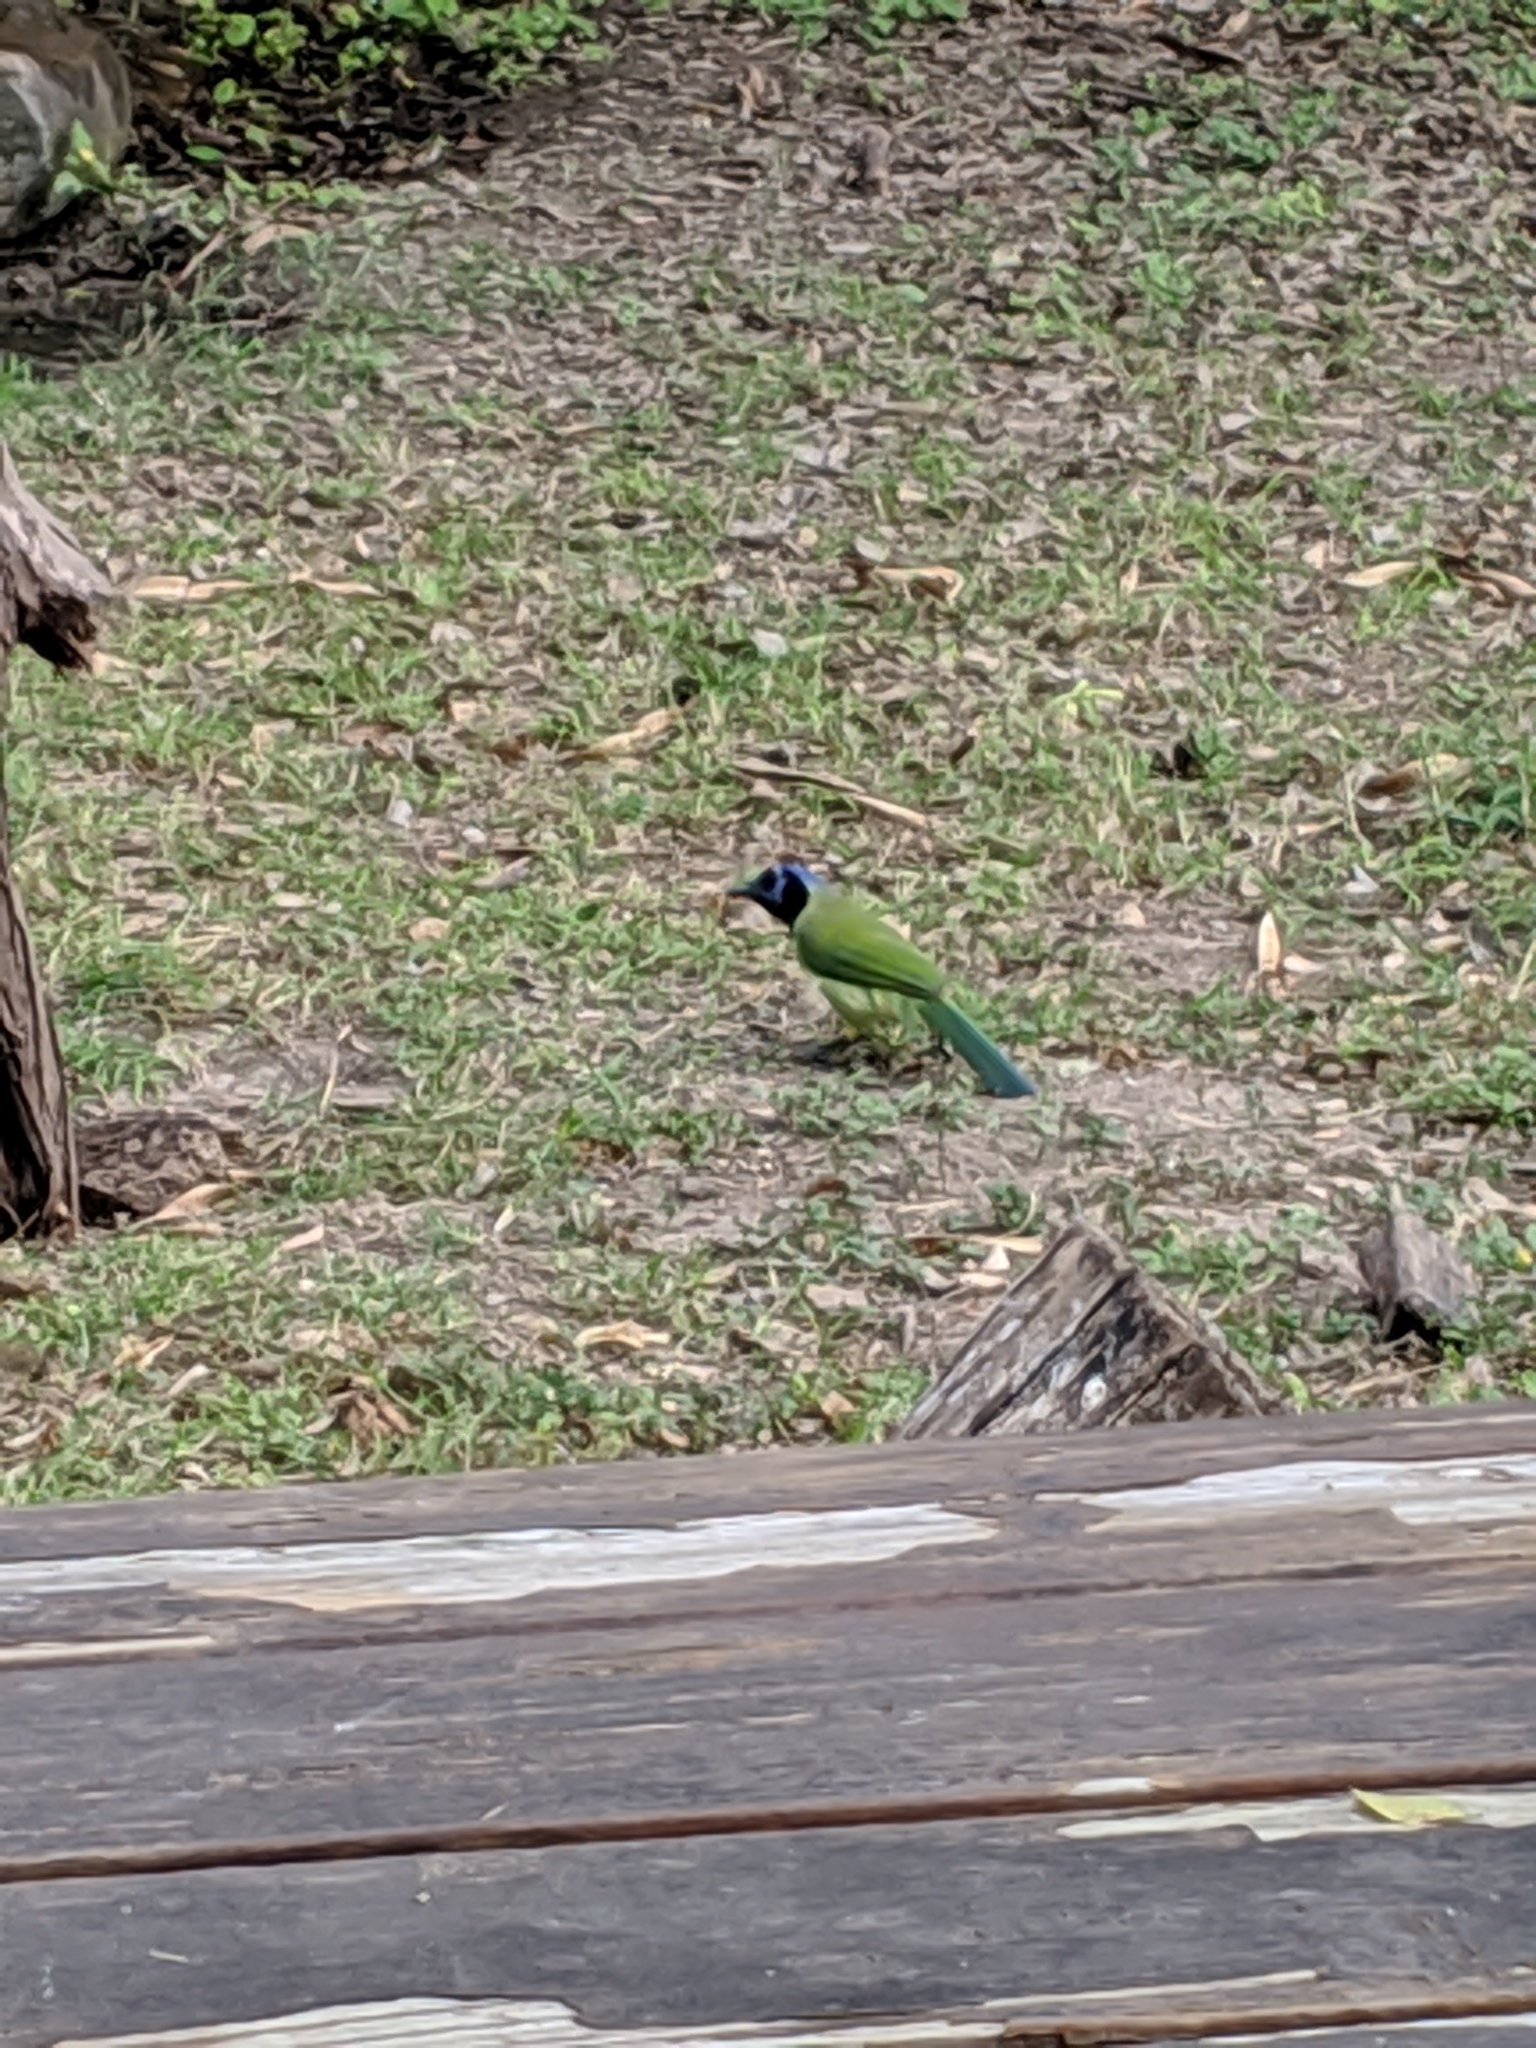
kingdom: Animalia
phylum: Chordata
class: Aves
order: Passeriformes
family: Corvidae
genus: Cyanocorax
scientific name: Cyanocorax yncas
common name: Green jay
